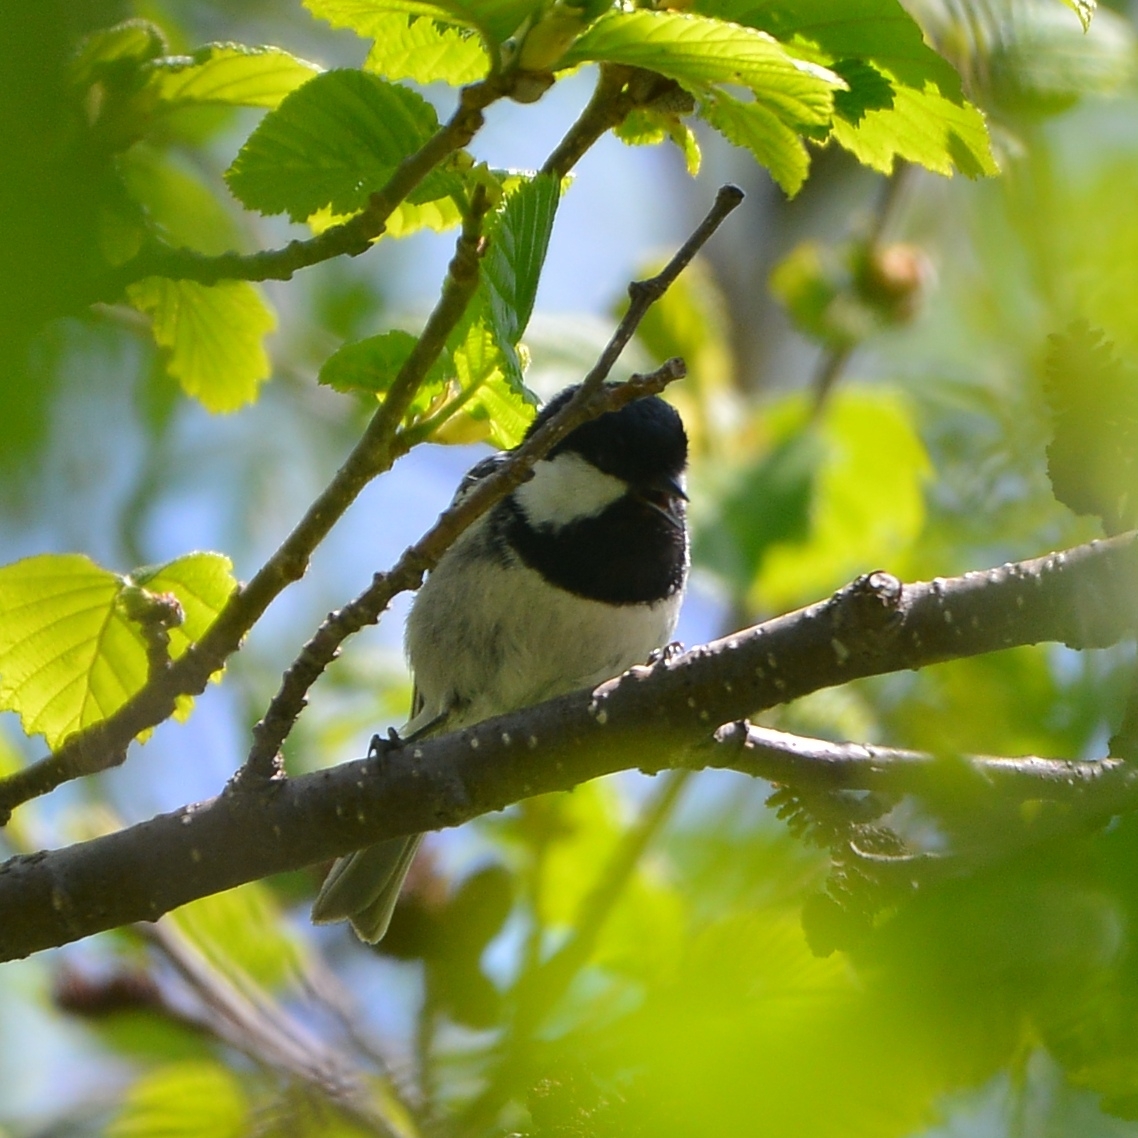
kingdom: Animalia
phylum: Chordata
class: Aves
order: Passeriformes
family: Paridae
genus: Periparus
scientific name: Periparus ater
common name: Coal tit
